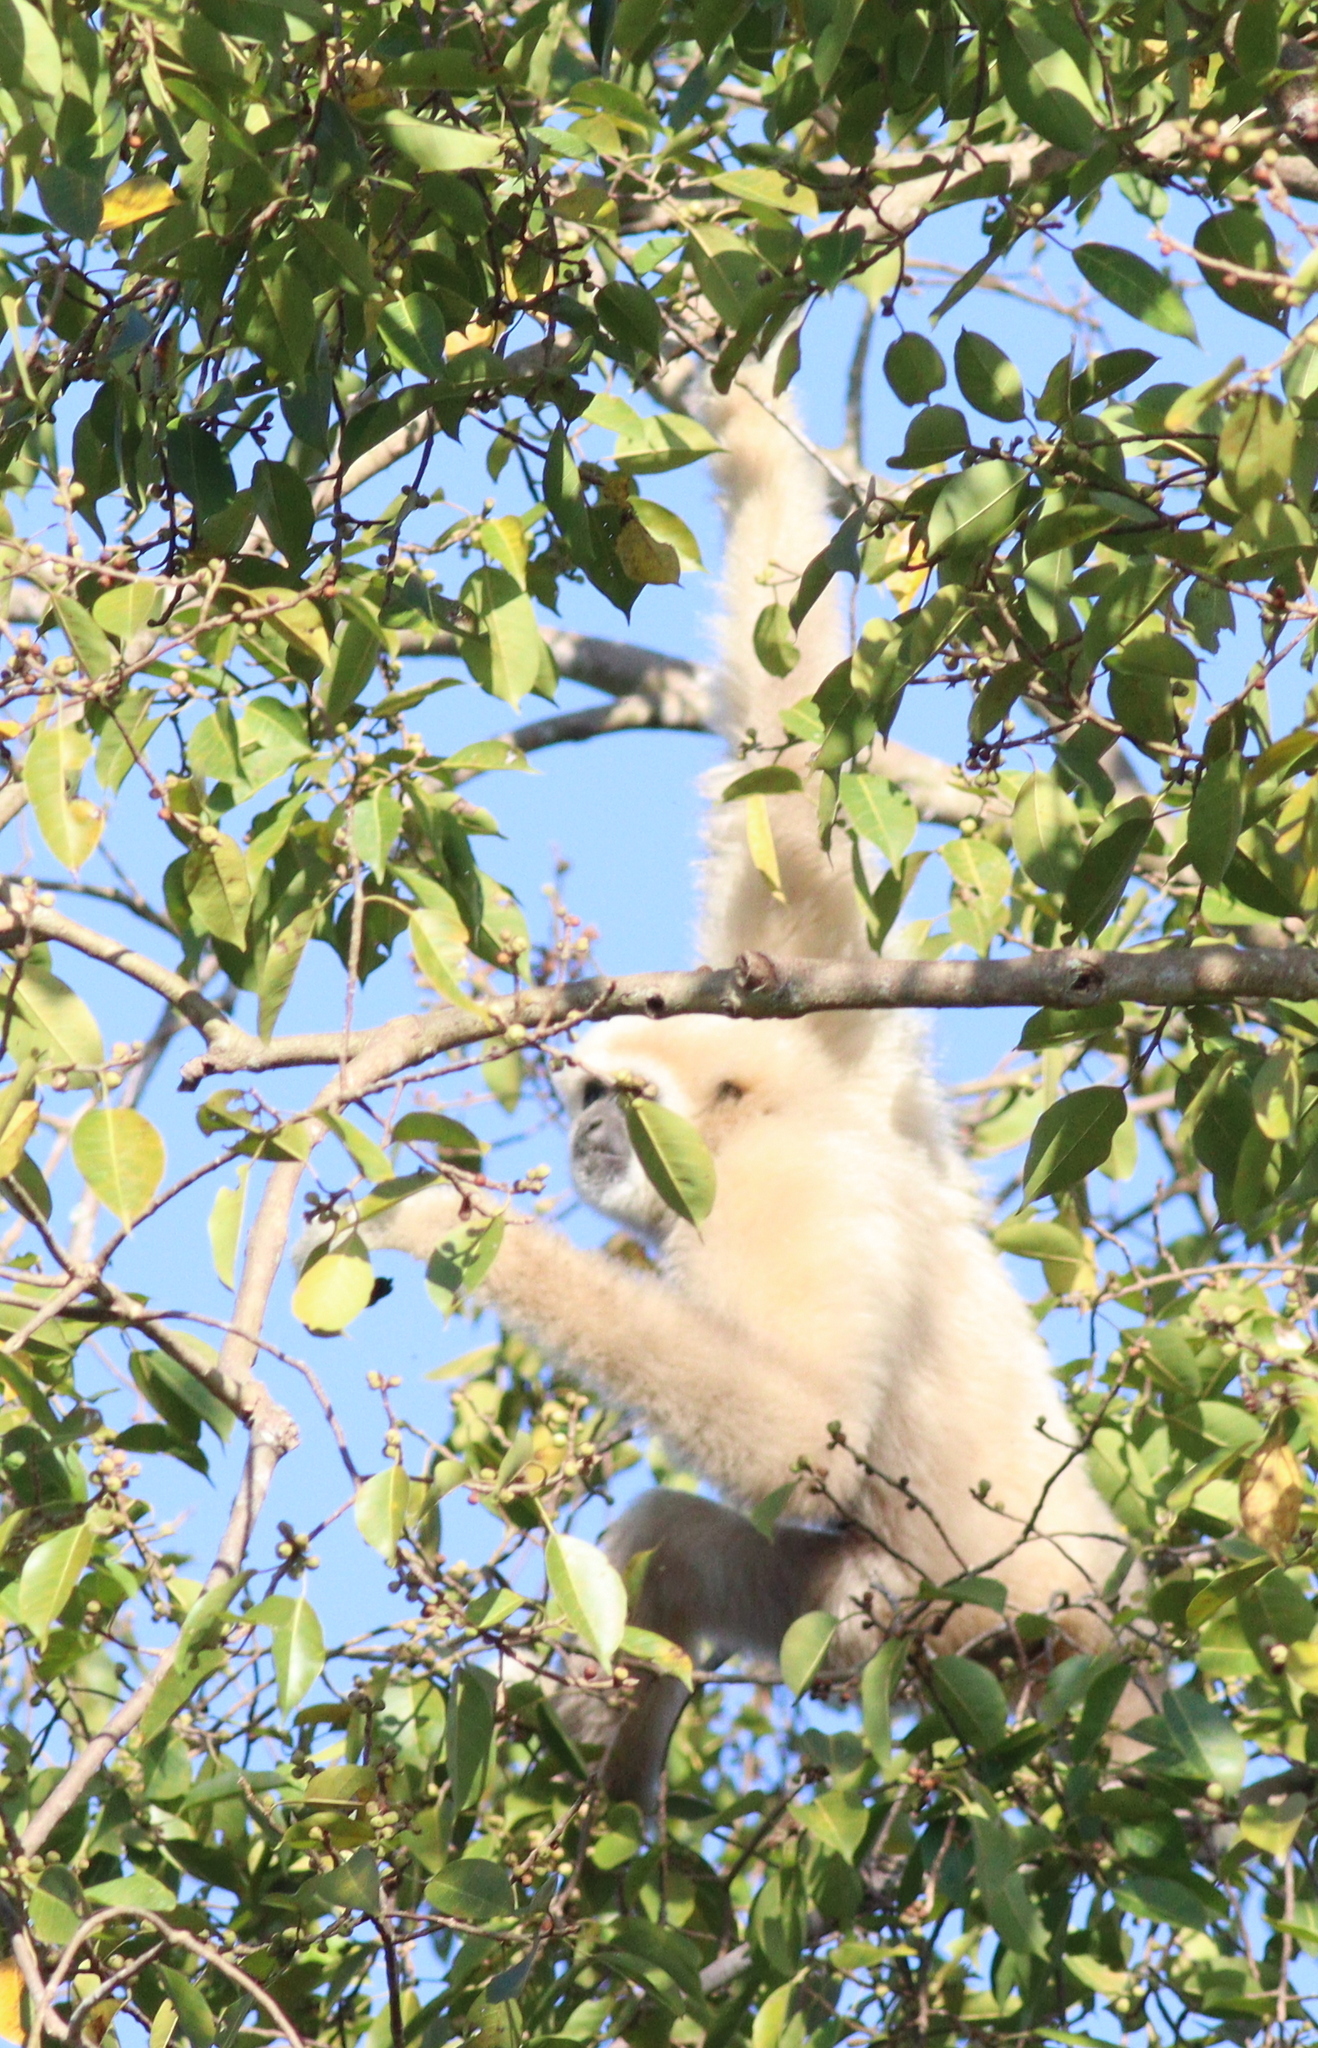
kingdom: Animalia
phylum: Chordata
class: Mammalia
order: Primates
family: Hylobatidae
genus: Hylobates
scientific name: Hylobates lar
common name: Lar gibbon
